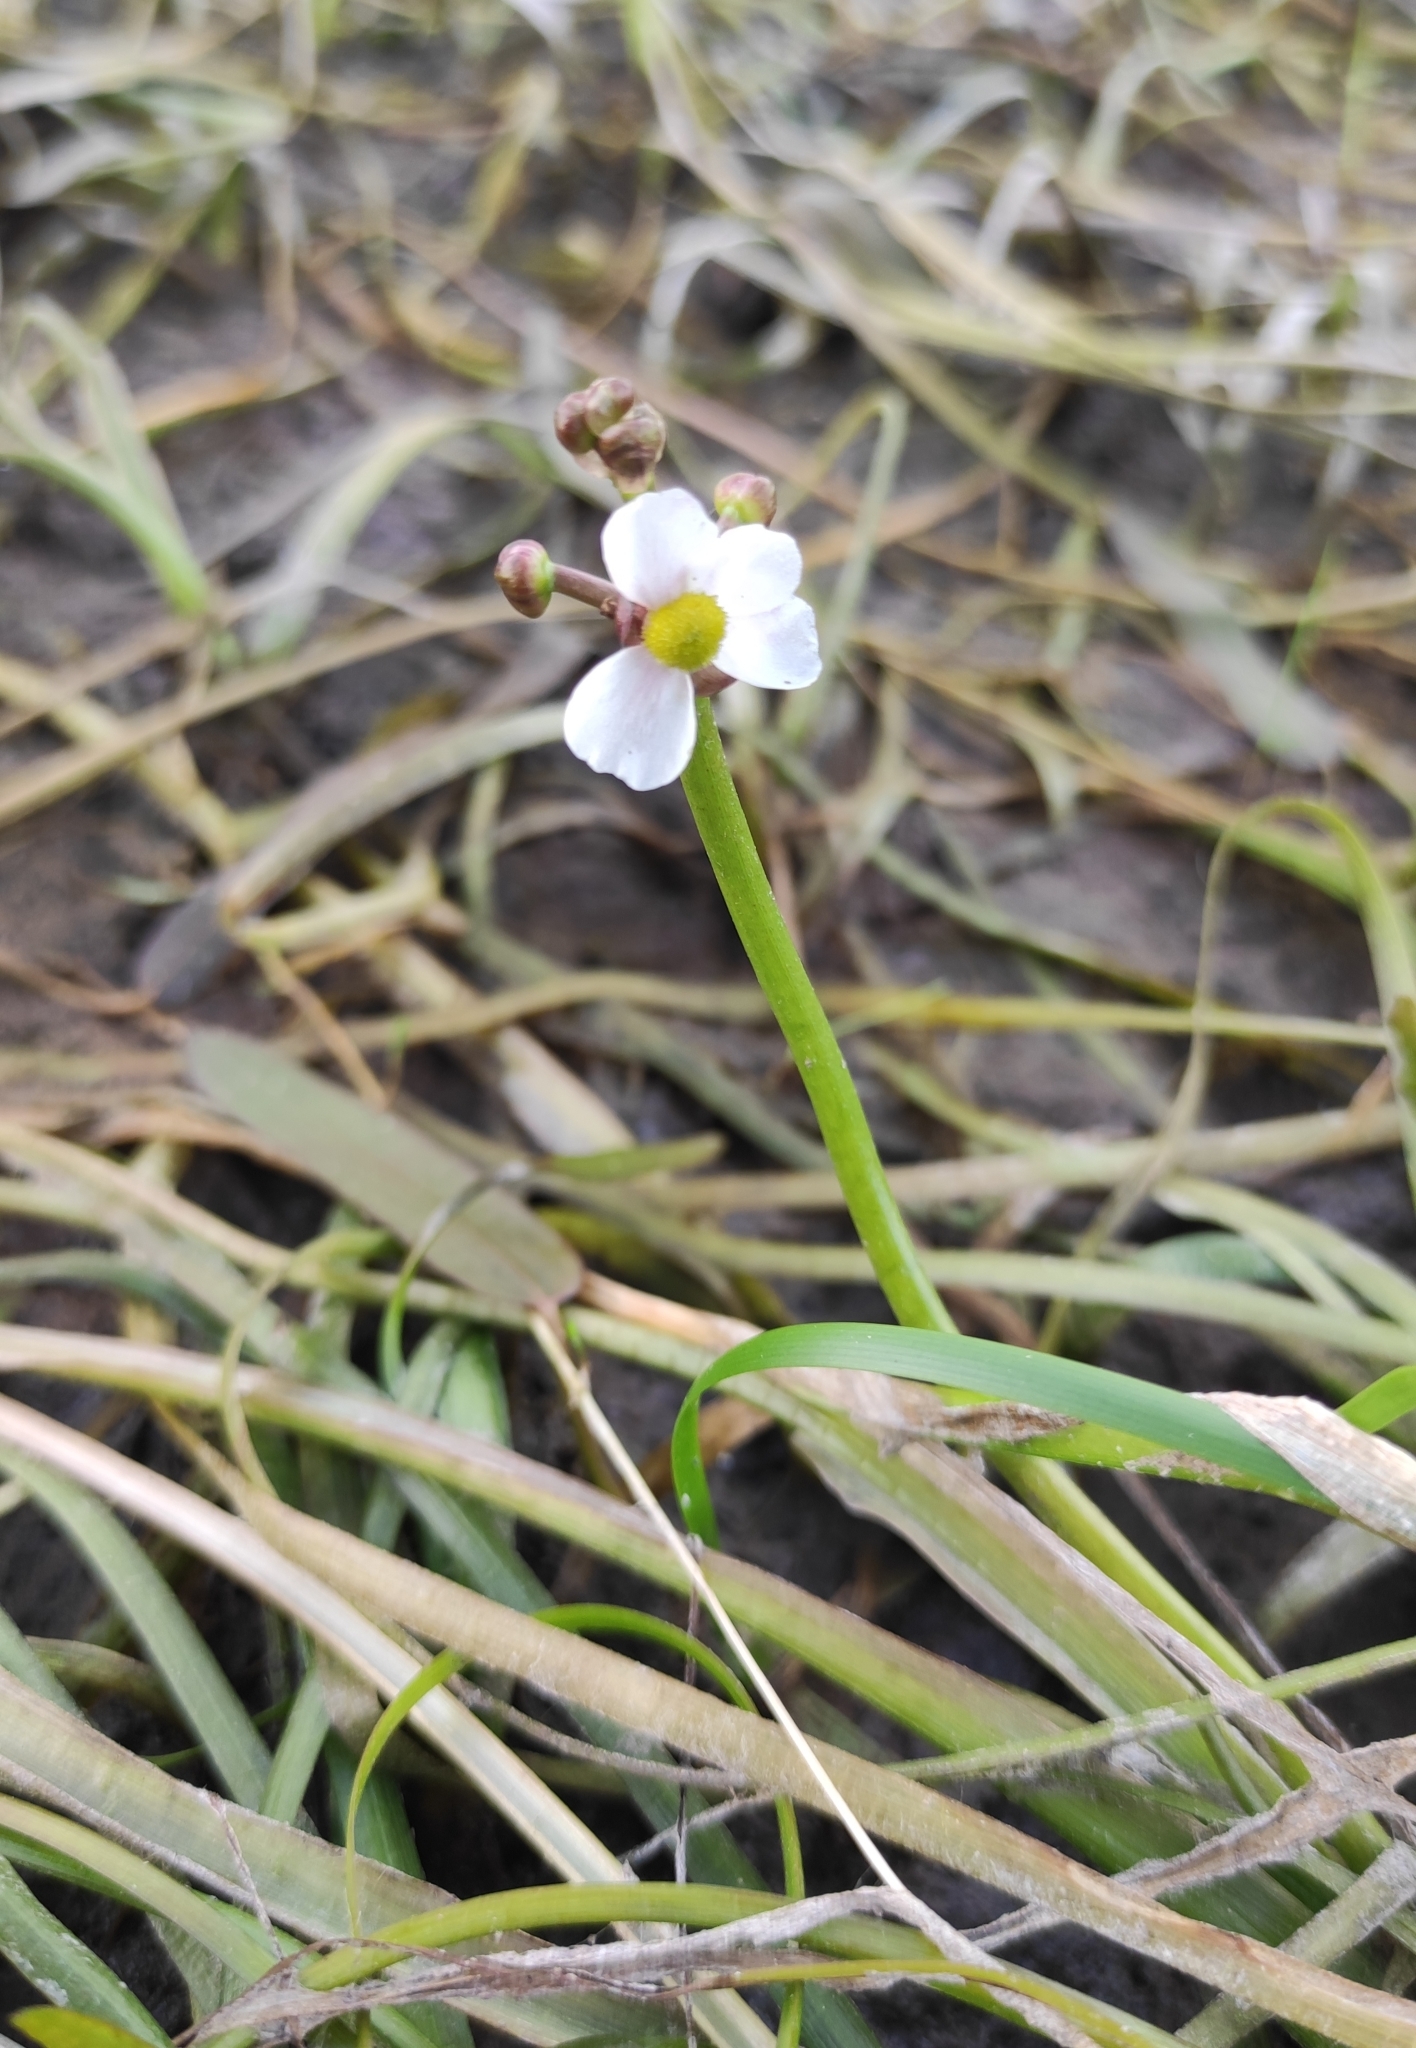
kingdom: Plantae
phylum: Tracheophyta
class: Liliopsida
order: Alismatales
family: Alismataceae
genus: Sagittaria
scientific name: Sagittaria natans
